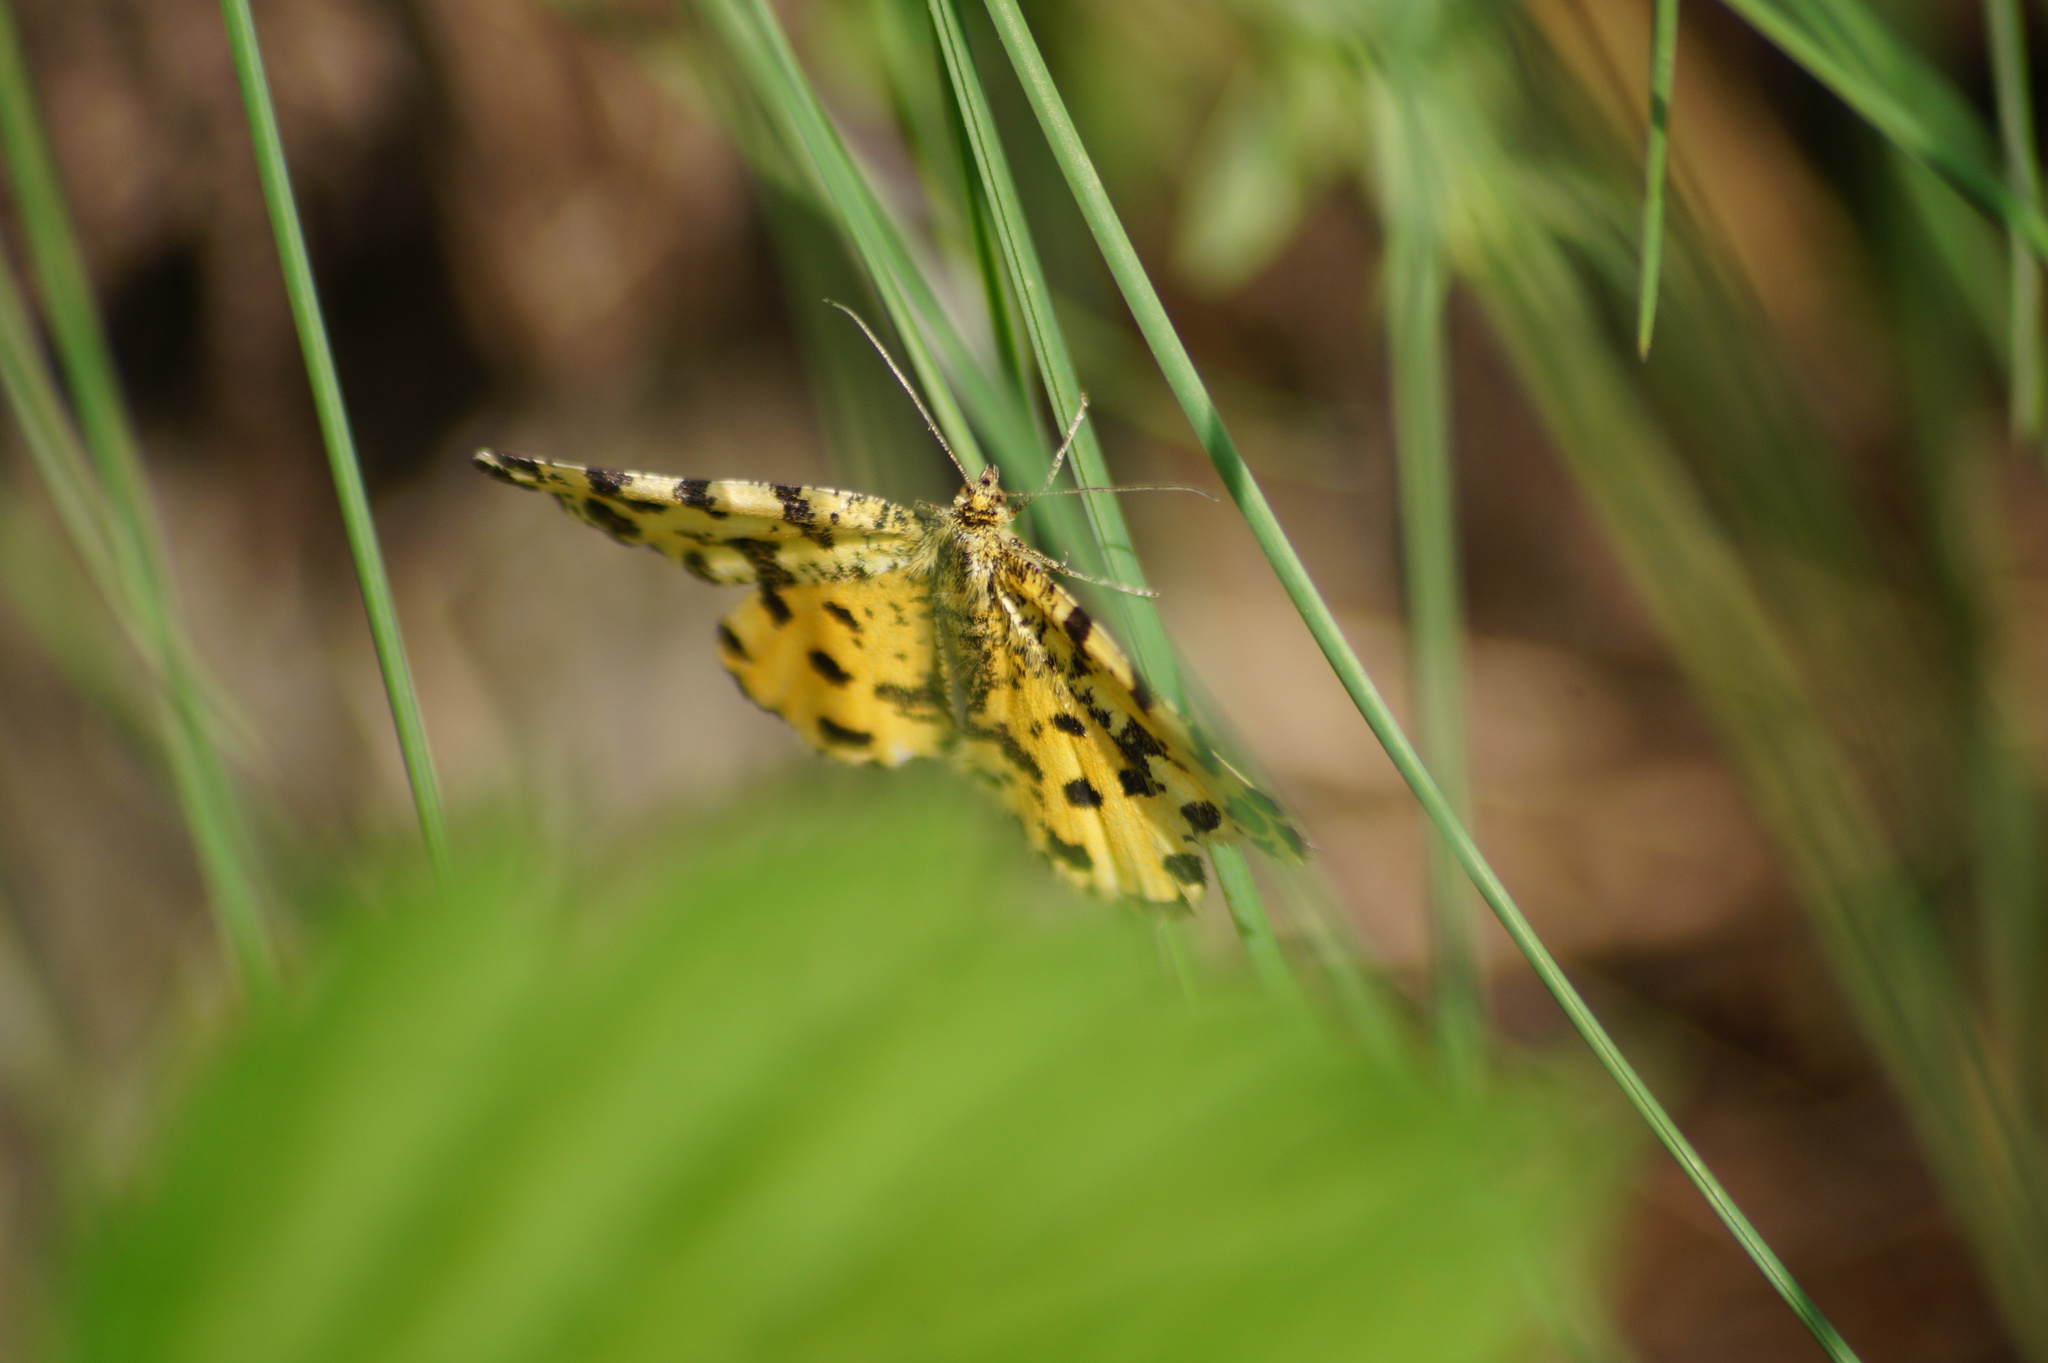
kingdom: Animalia
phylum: Arthropoda
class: Insecta
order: Lepidoptera
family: Geometridae
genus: Pseudopanthera
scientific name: Pseudopanthera macularia
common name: Speckled yellow
